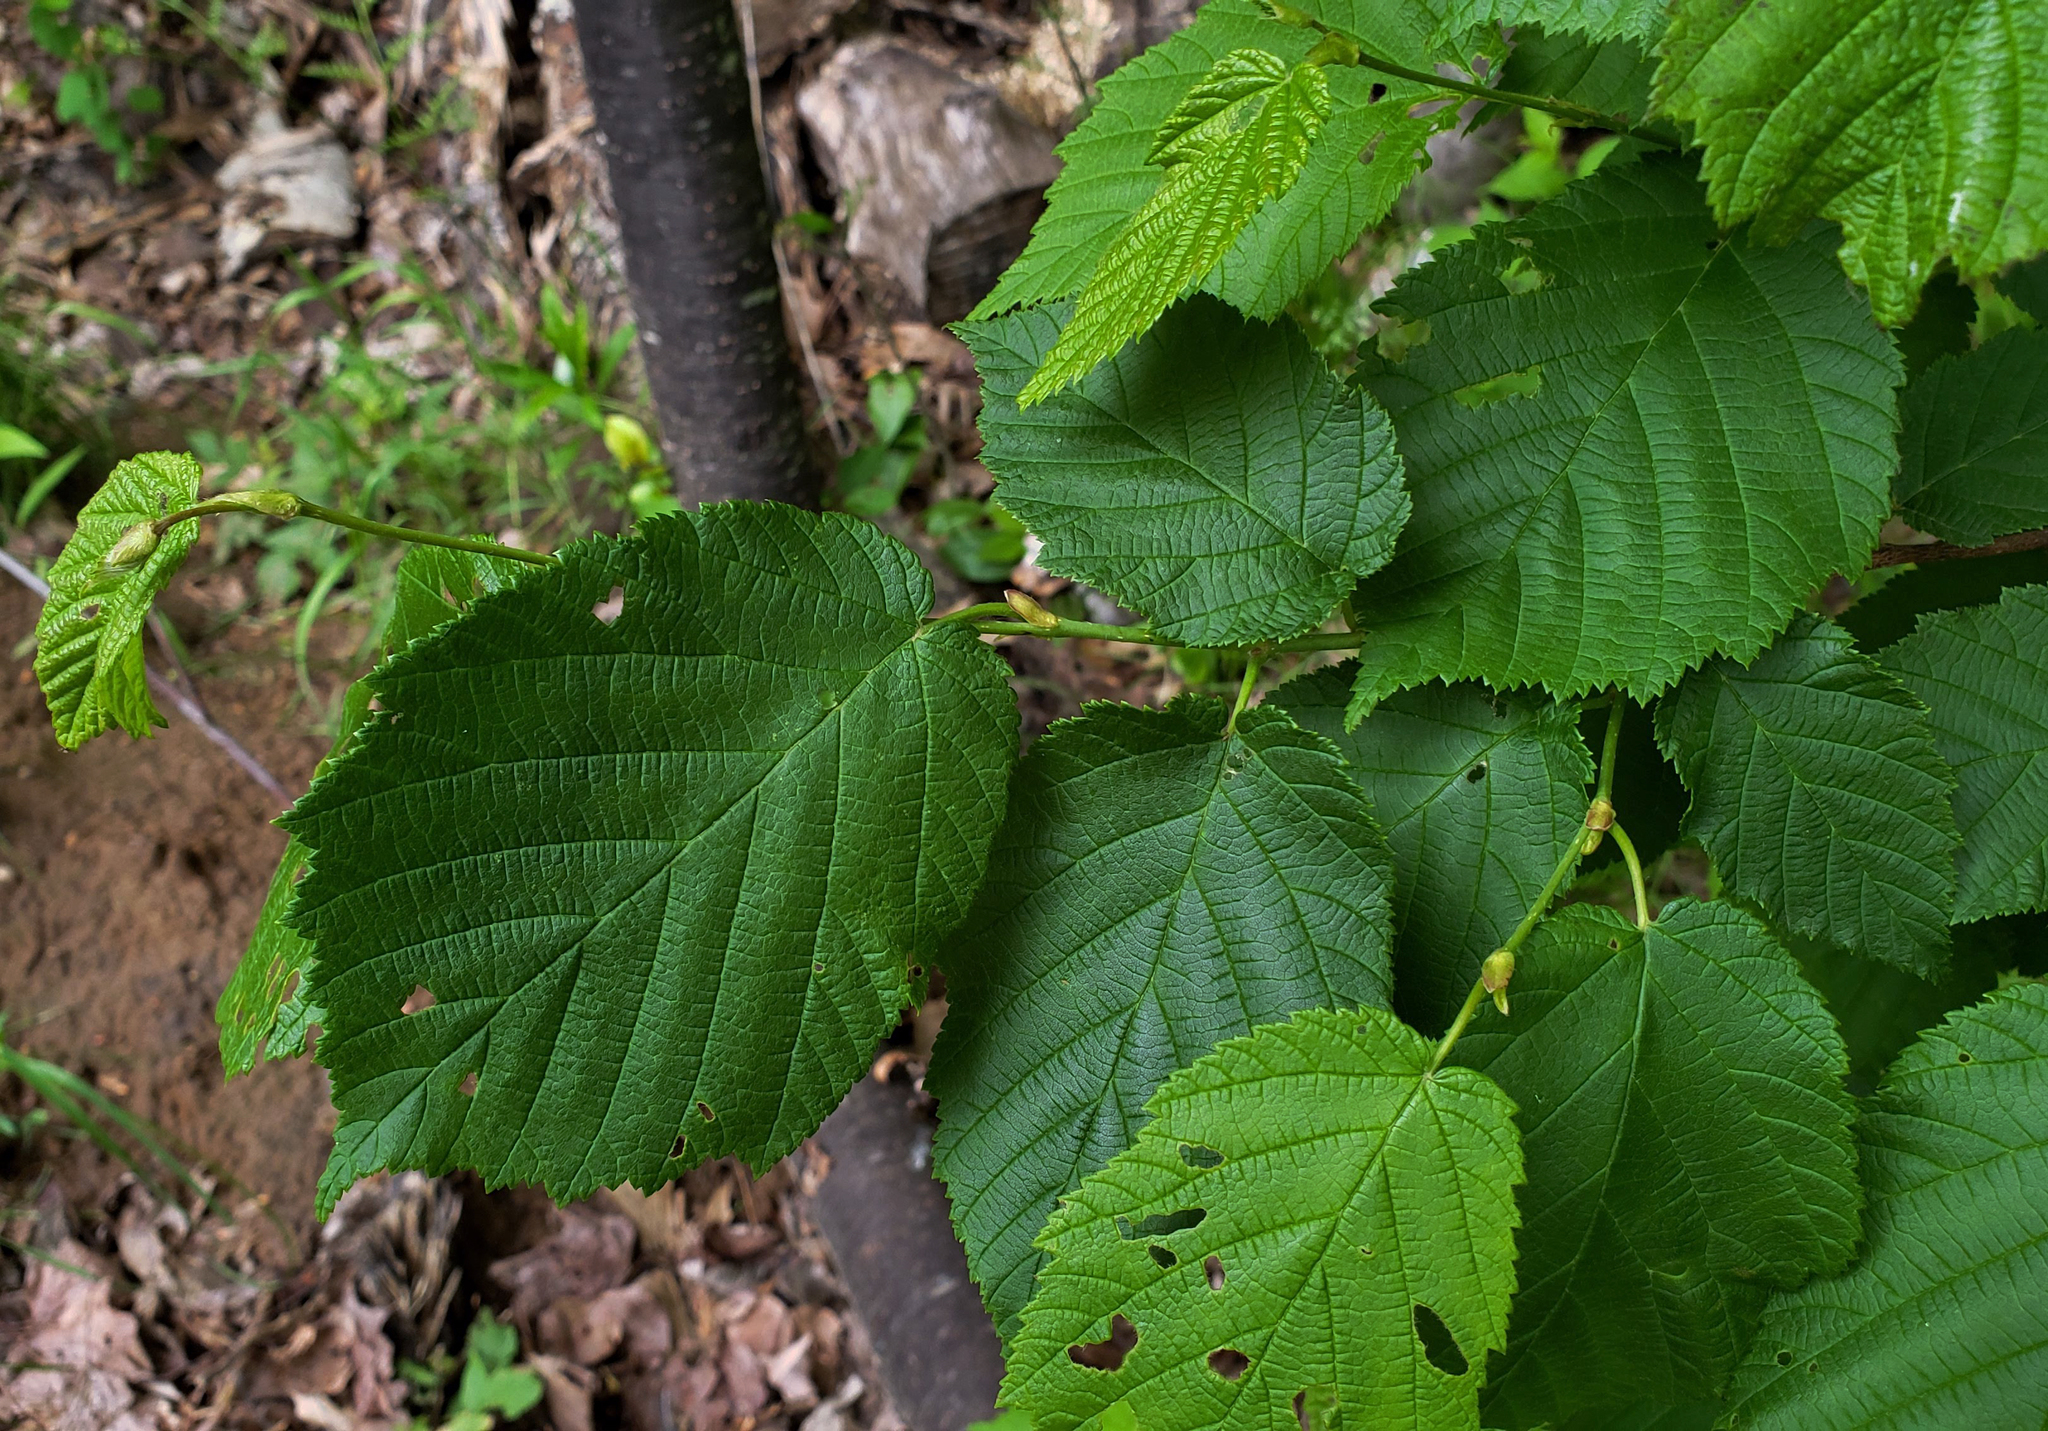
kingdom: Plantae
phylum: Tracheophyta
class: Magnoliopsida
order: Fagales
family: Betulaceae
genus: Corylus
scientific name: Corylus cornuta
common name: Beaked hazel
